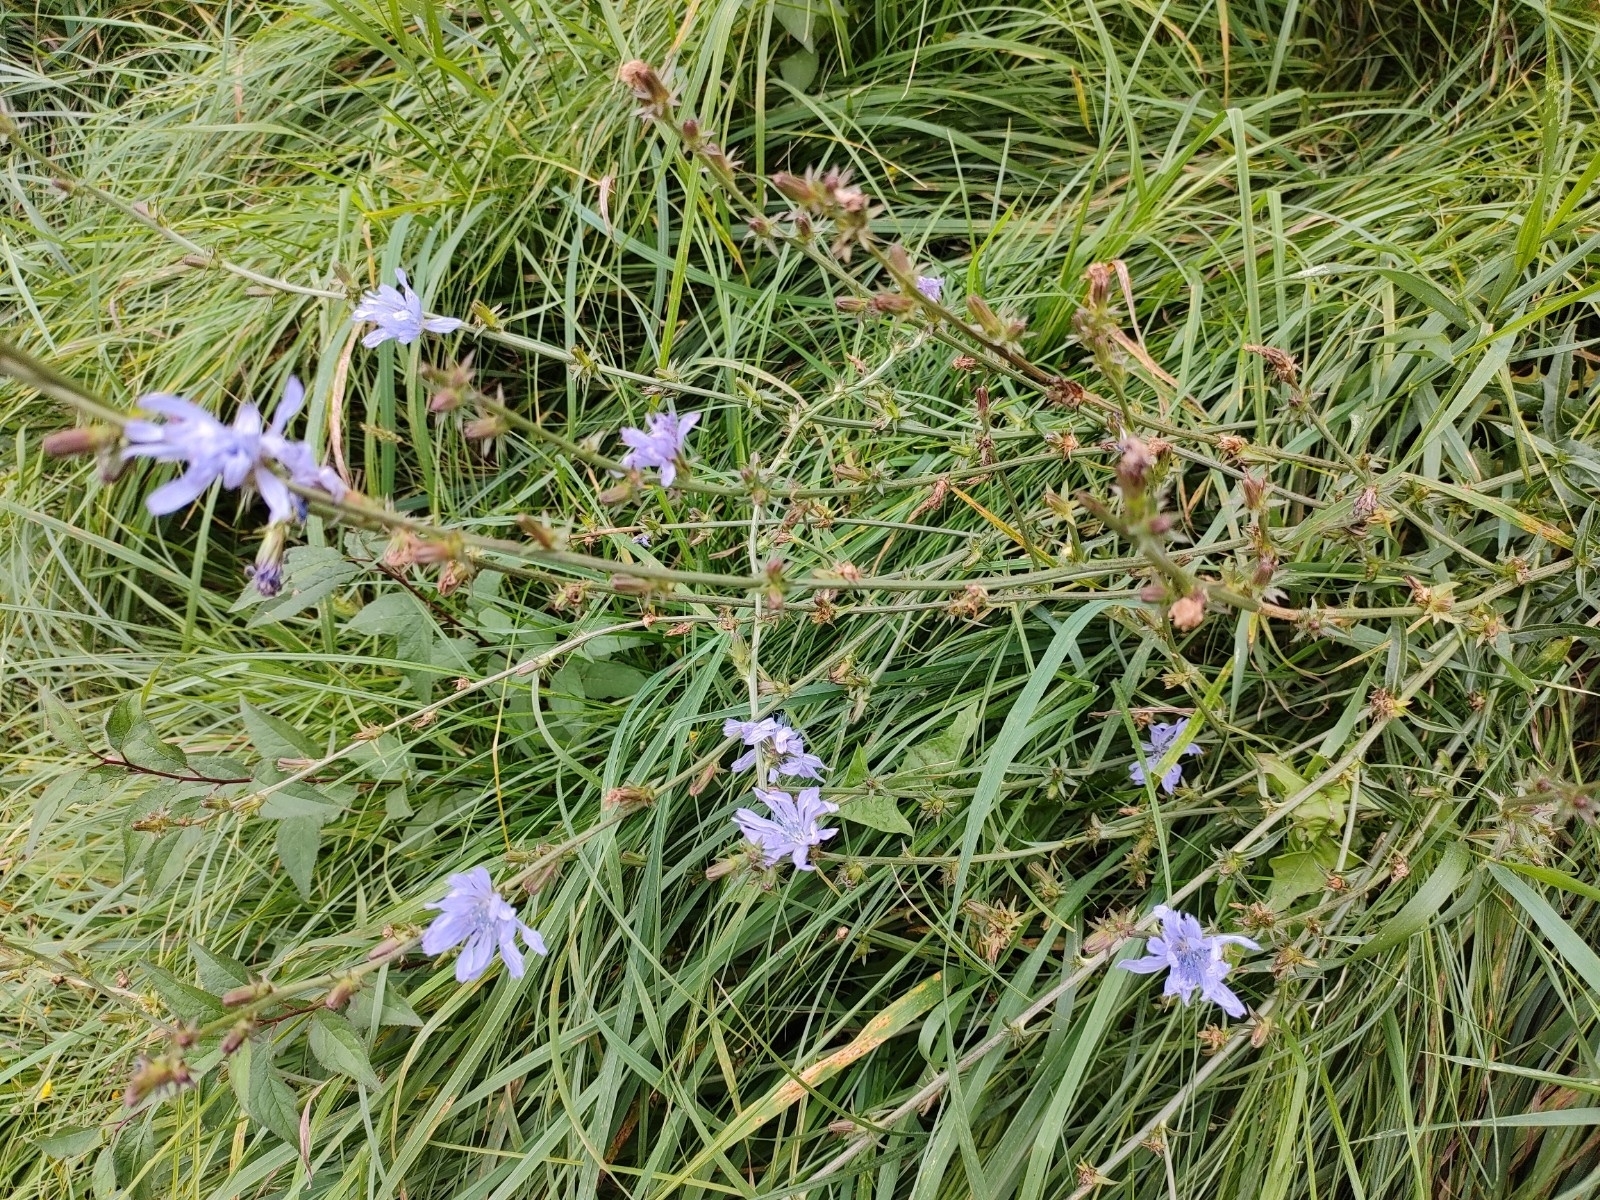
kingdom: Plantae
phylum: Tracheophyta
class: Magnoliopsida
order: Asterales
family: Asteraceae
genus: Cichorium
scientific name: Cichorium intybus
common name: Chicory
